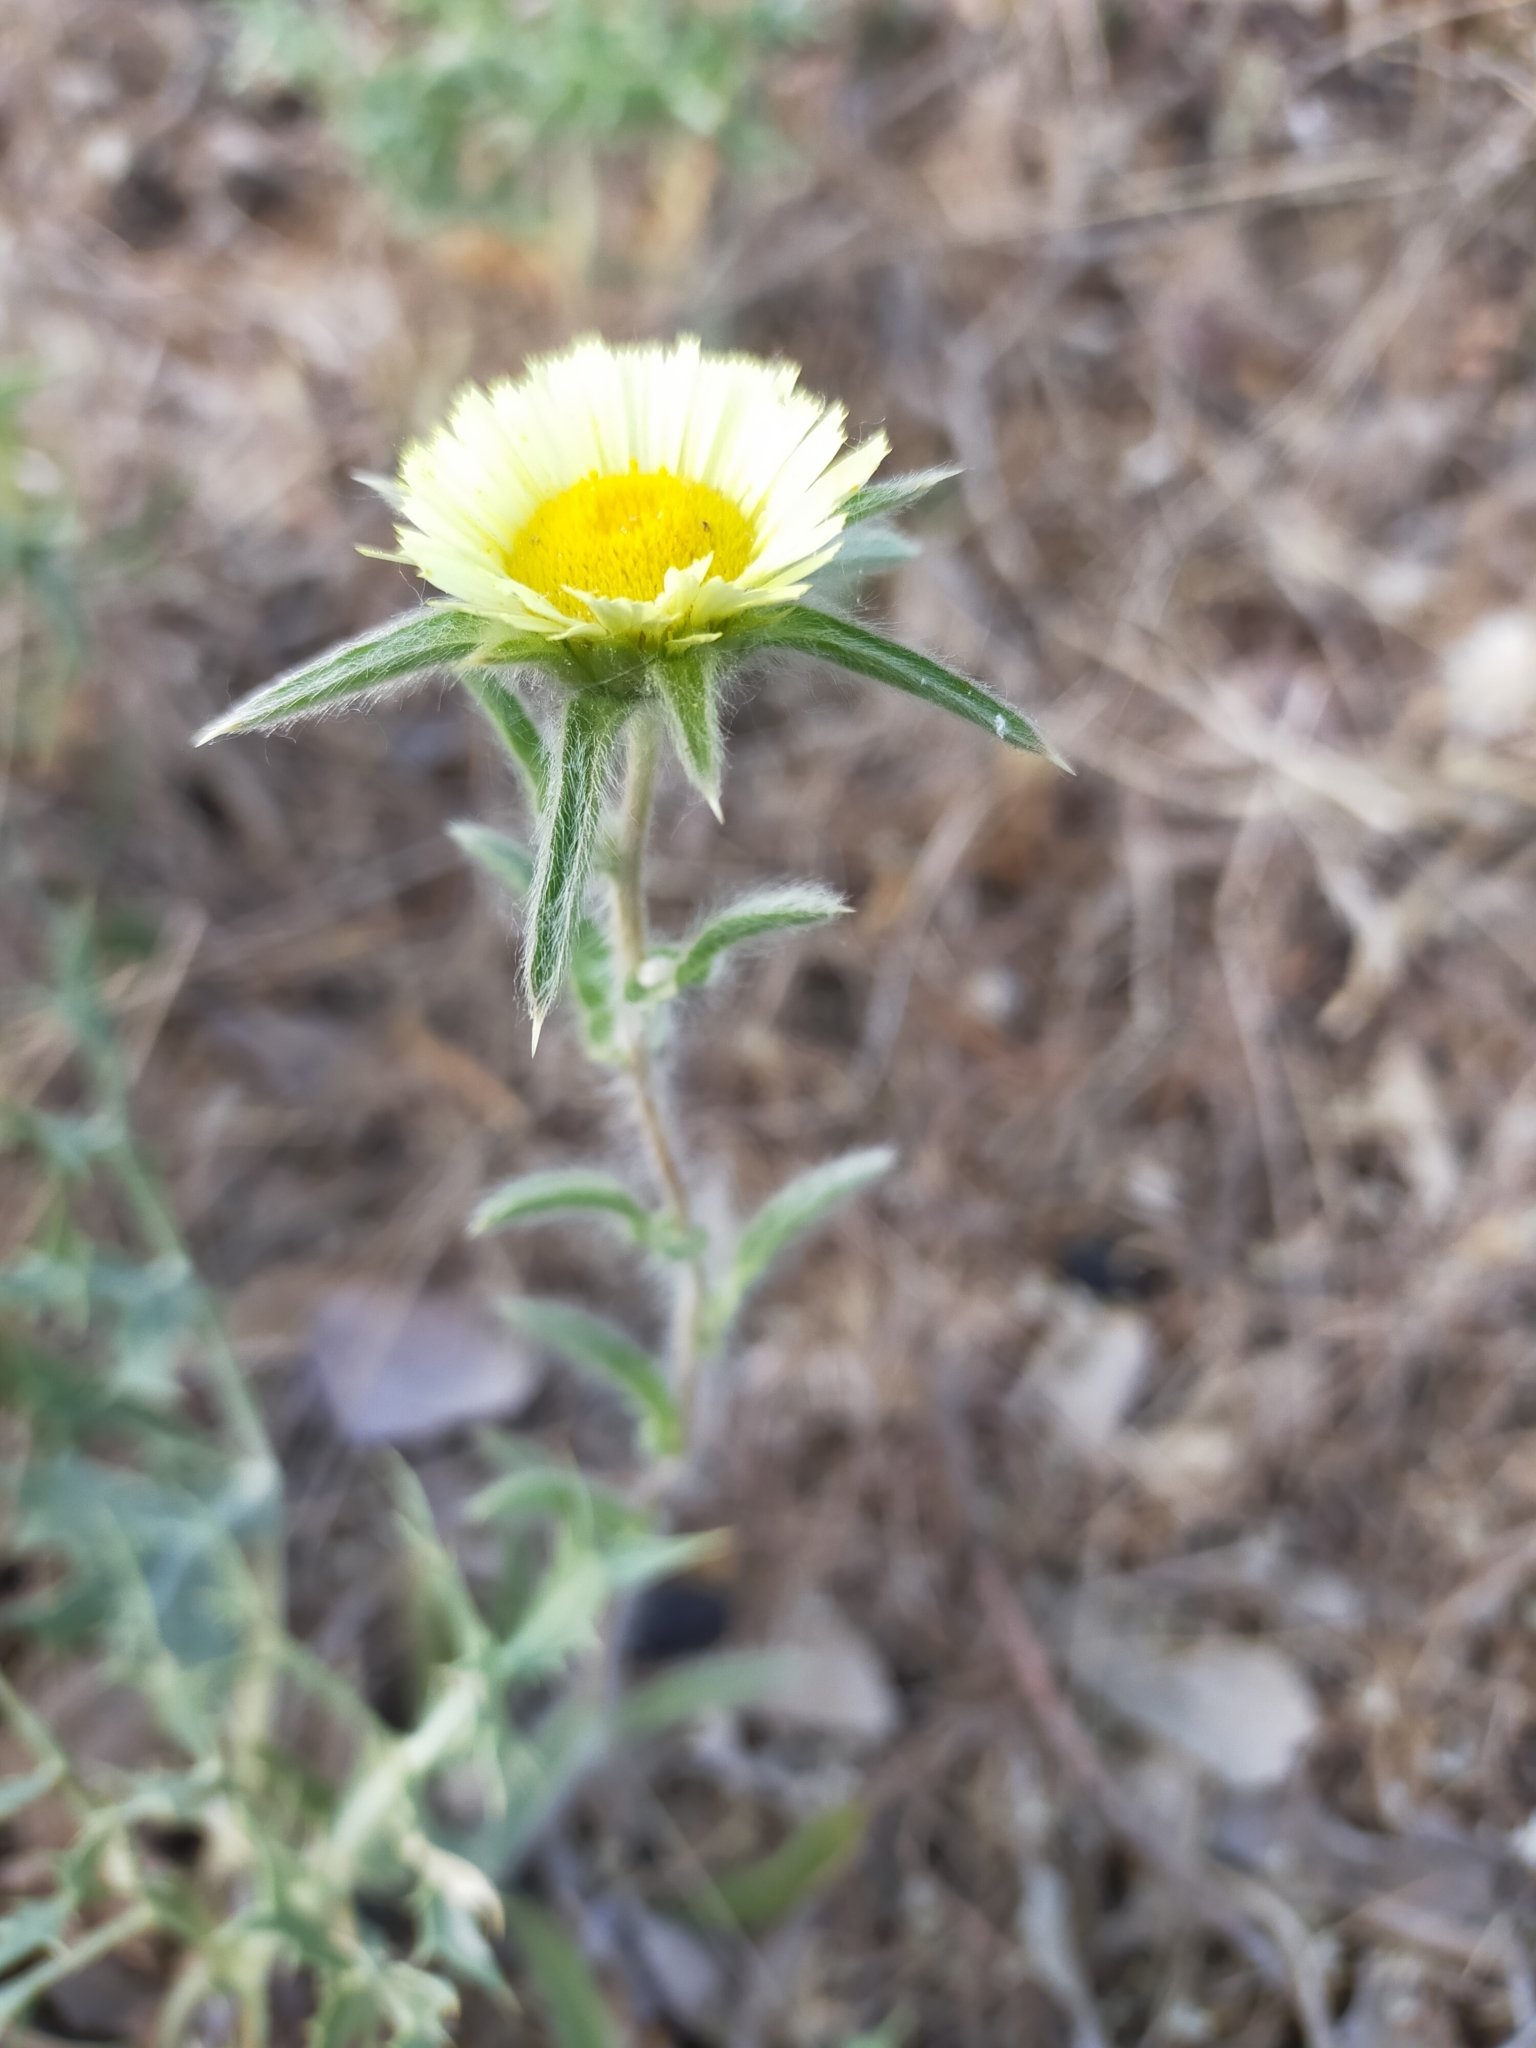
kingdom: Plantae
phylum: Tracheophyta
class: Magnoliopsida
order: Asterales
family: Asteraceae
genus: Pallenis
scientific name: Pallenis spinosa
